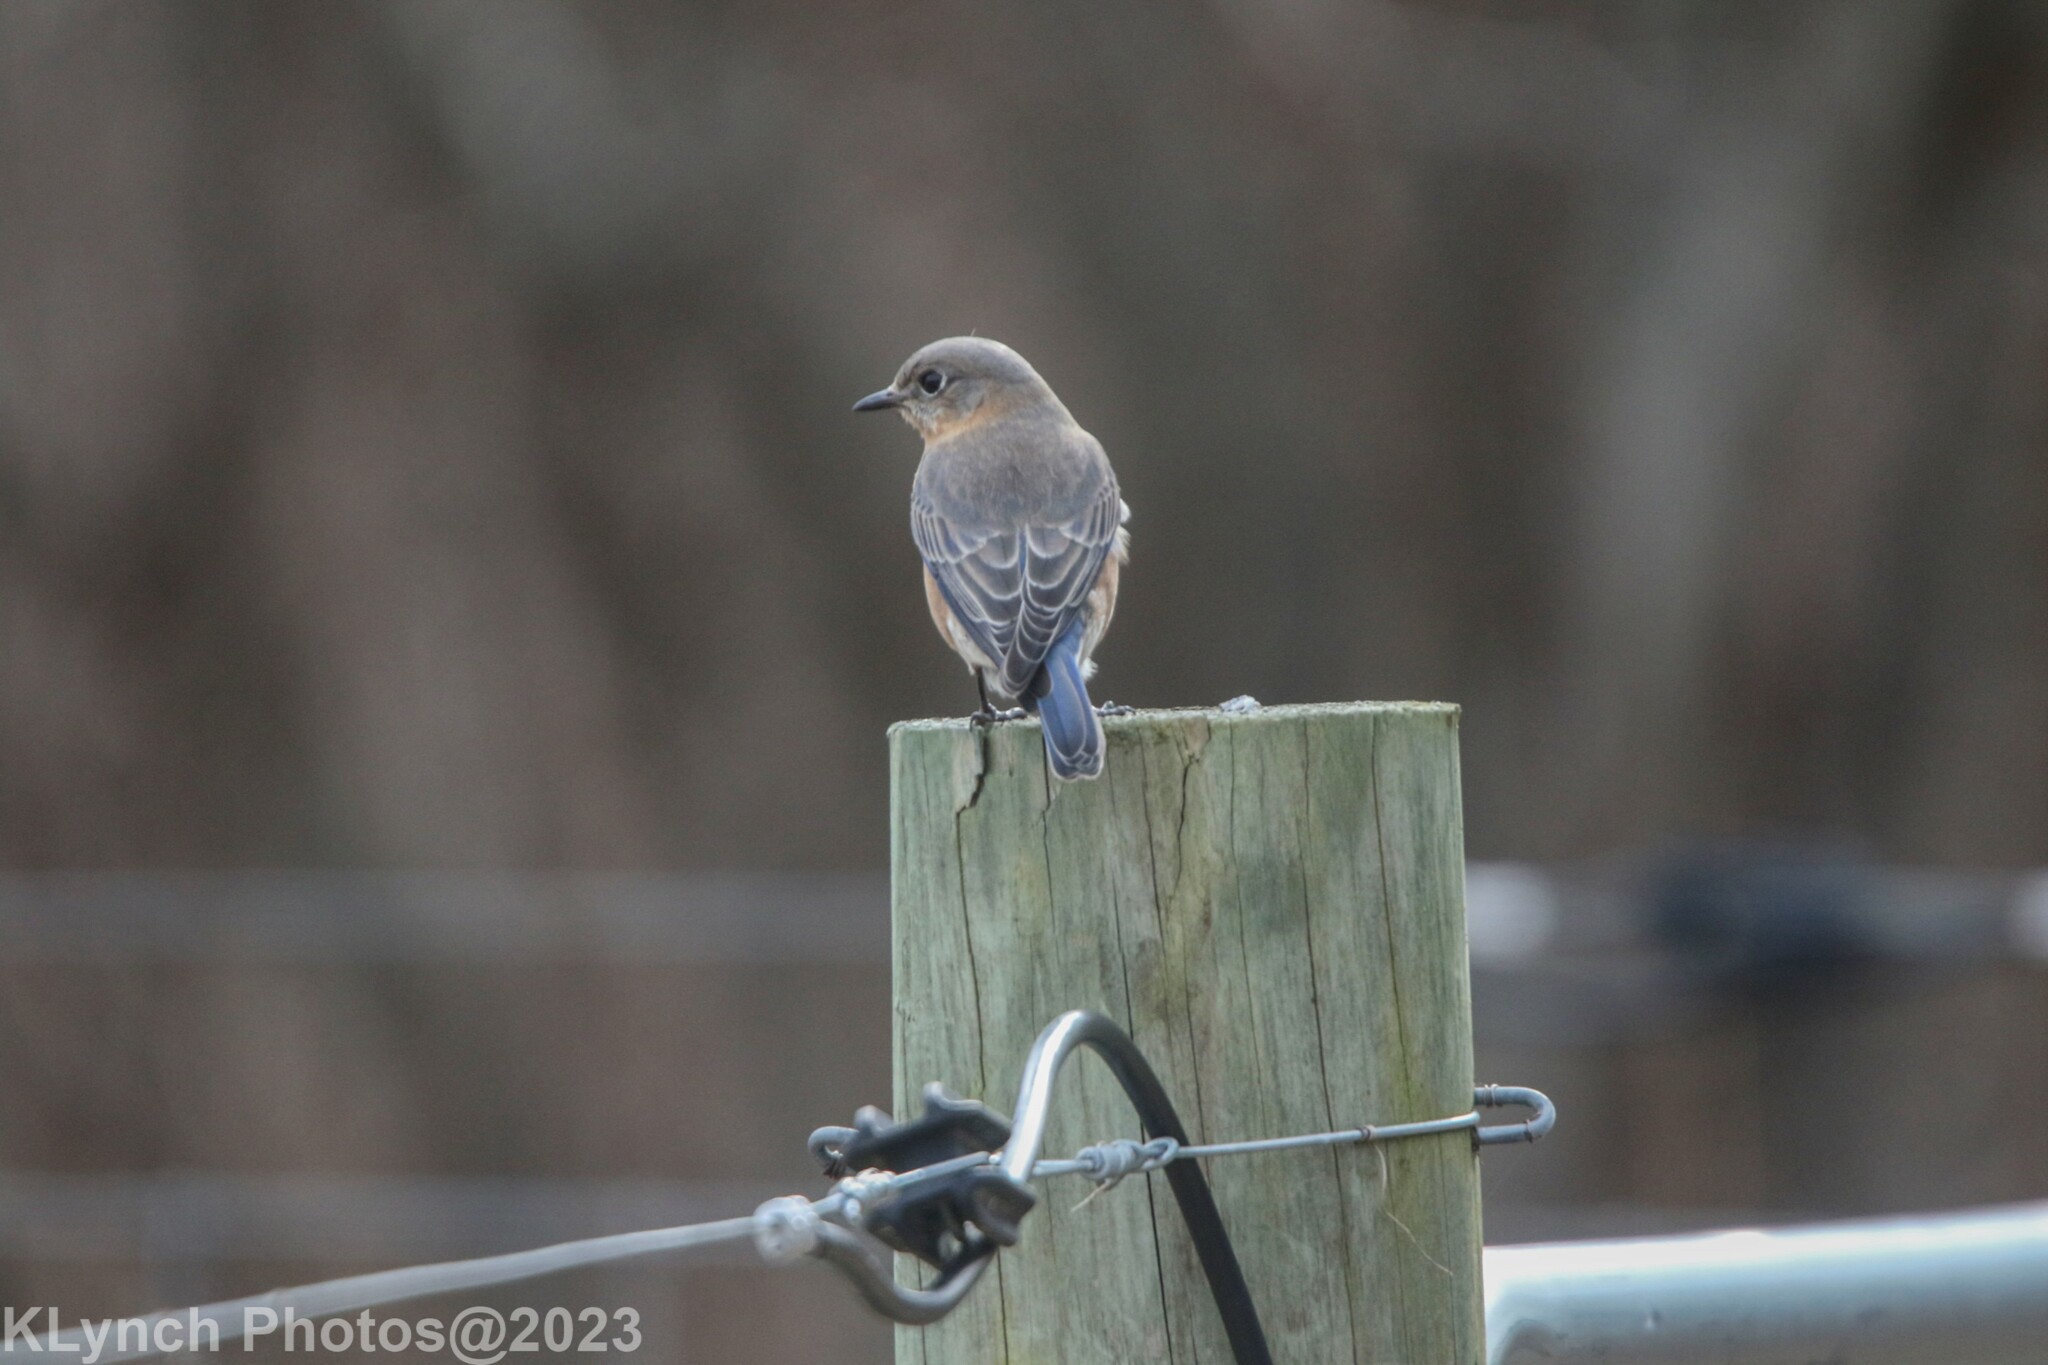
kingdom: Animalia
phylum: Chordata
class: Aves
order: Passeriformes
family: Turdidae
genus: Sialia
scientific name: Sialia sialis
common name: Eastern bluebird
